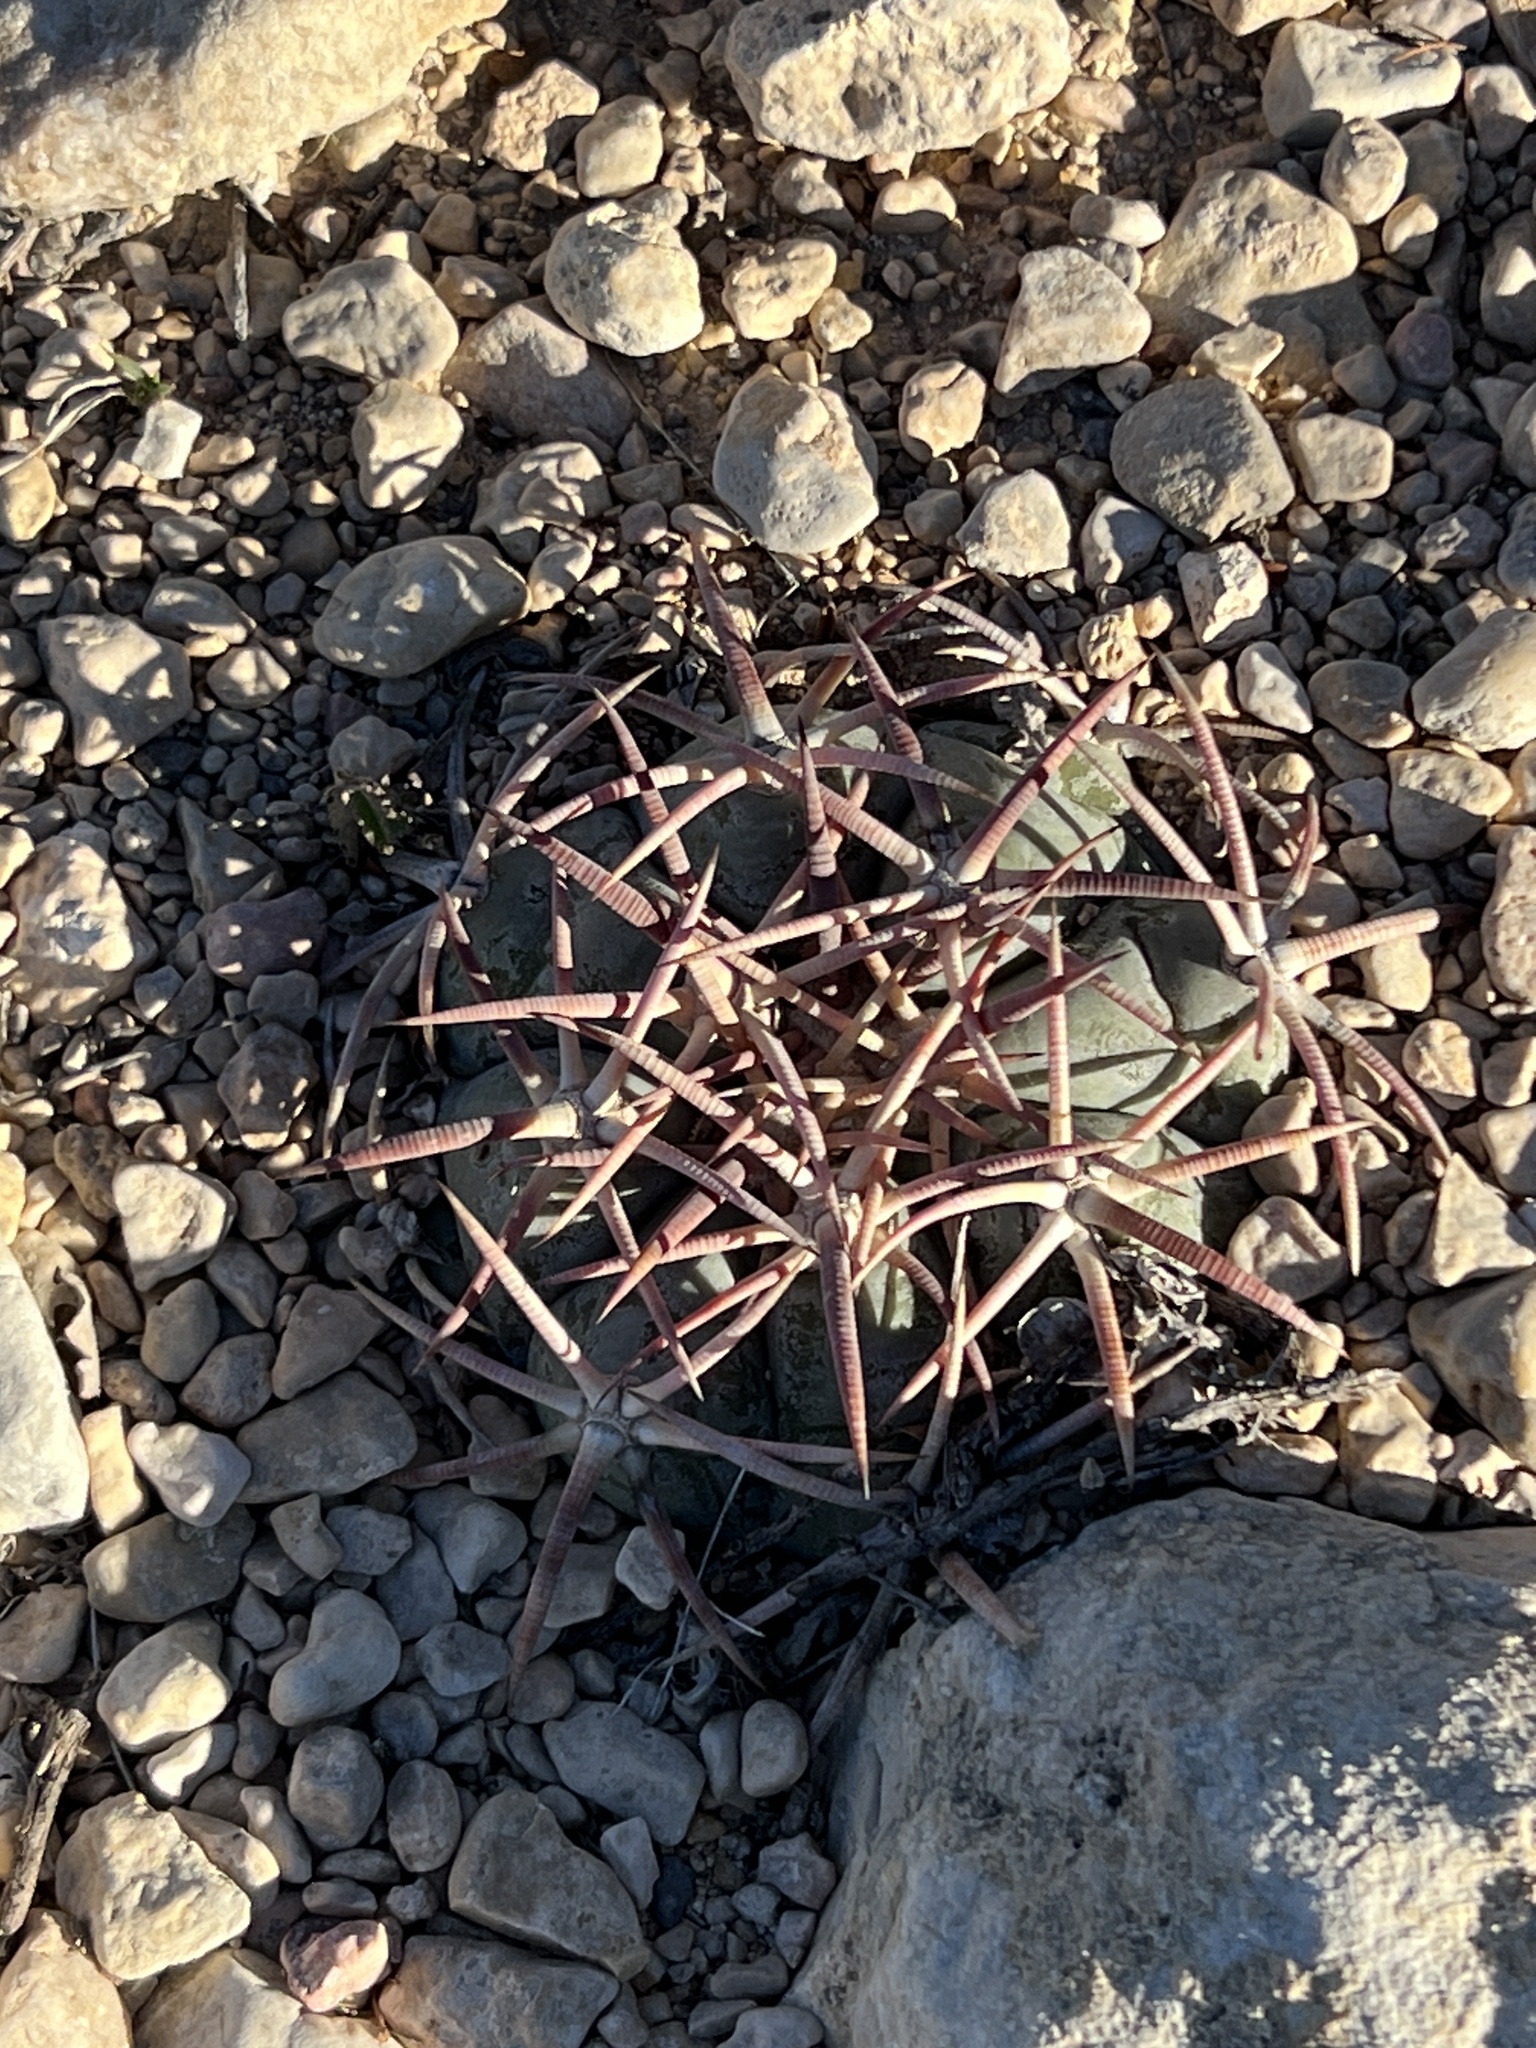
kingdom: Plantae
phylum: Tracheophyta
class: Magnoliopsida
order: Caryophyllales
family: Cactaceae
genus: Echinocactus
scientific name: Echinocactus horizonthalonius
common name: Devilshead
